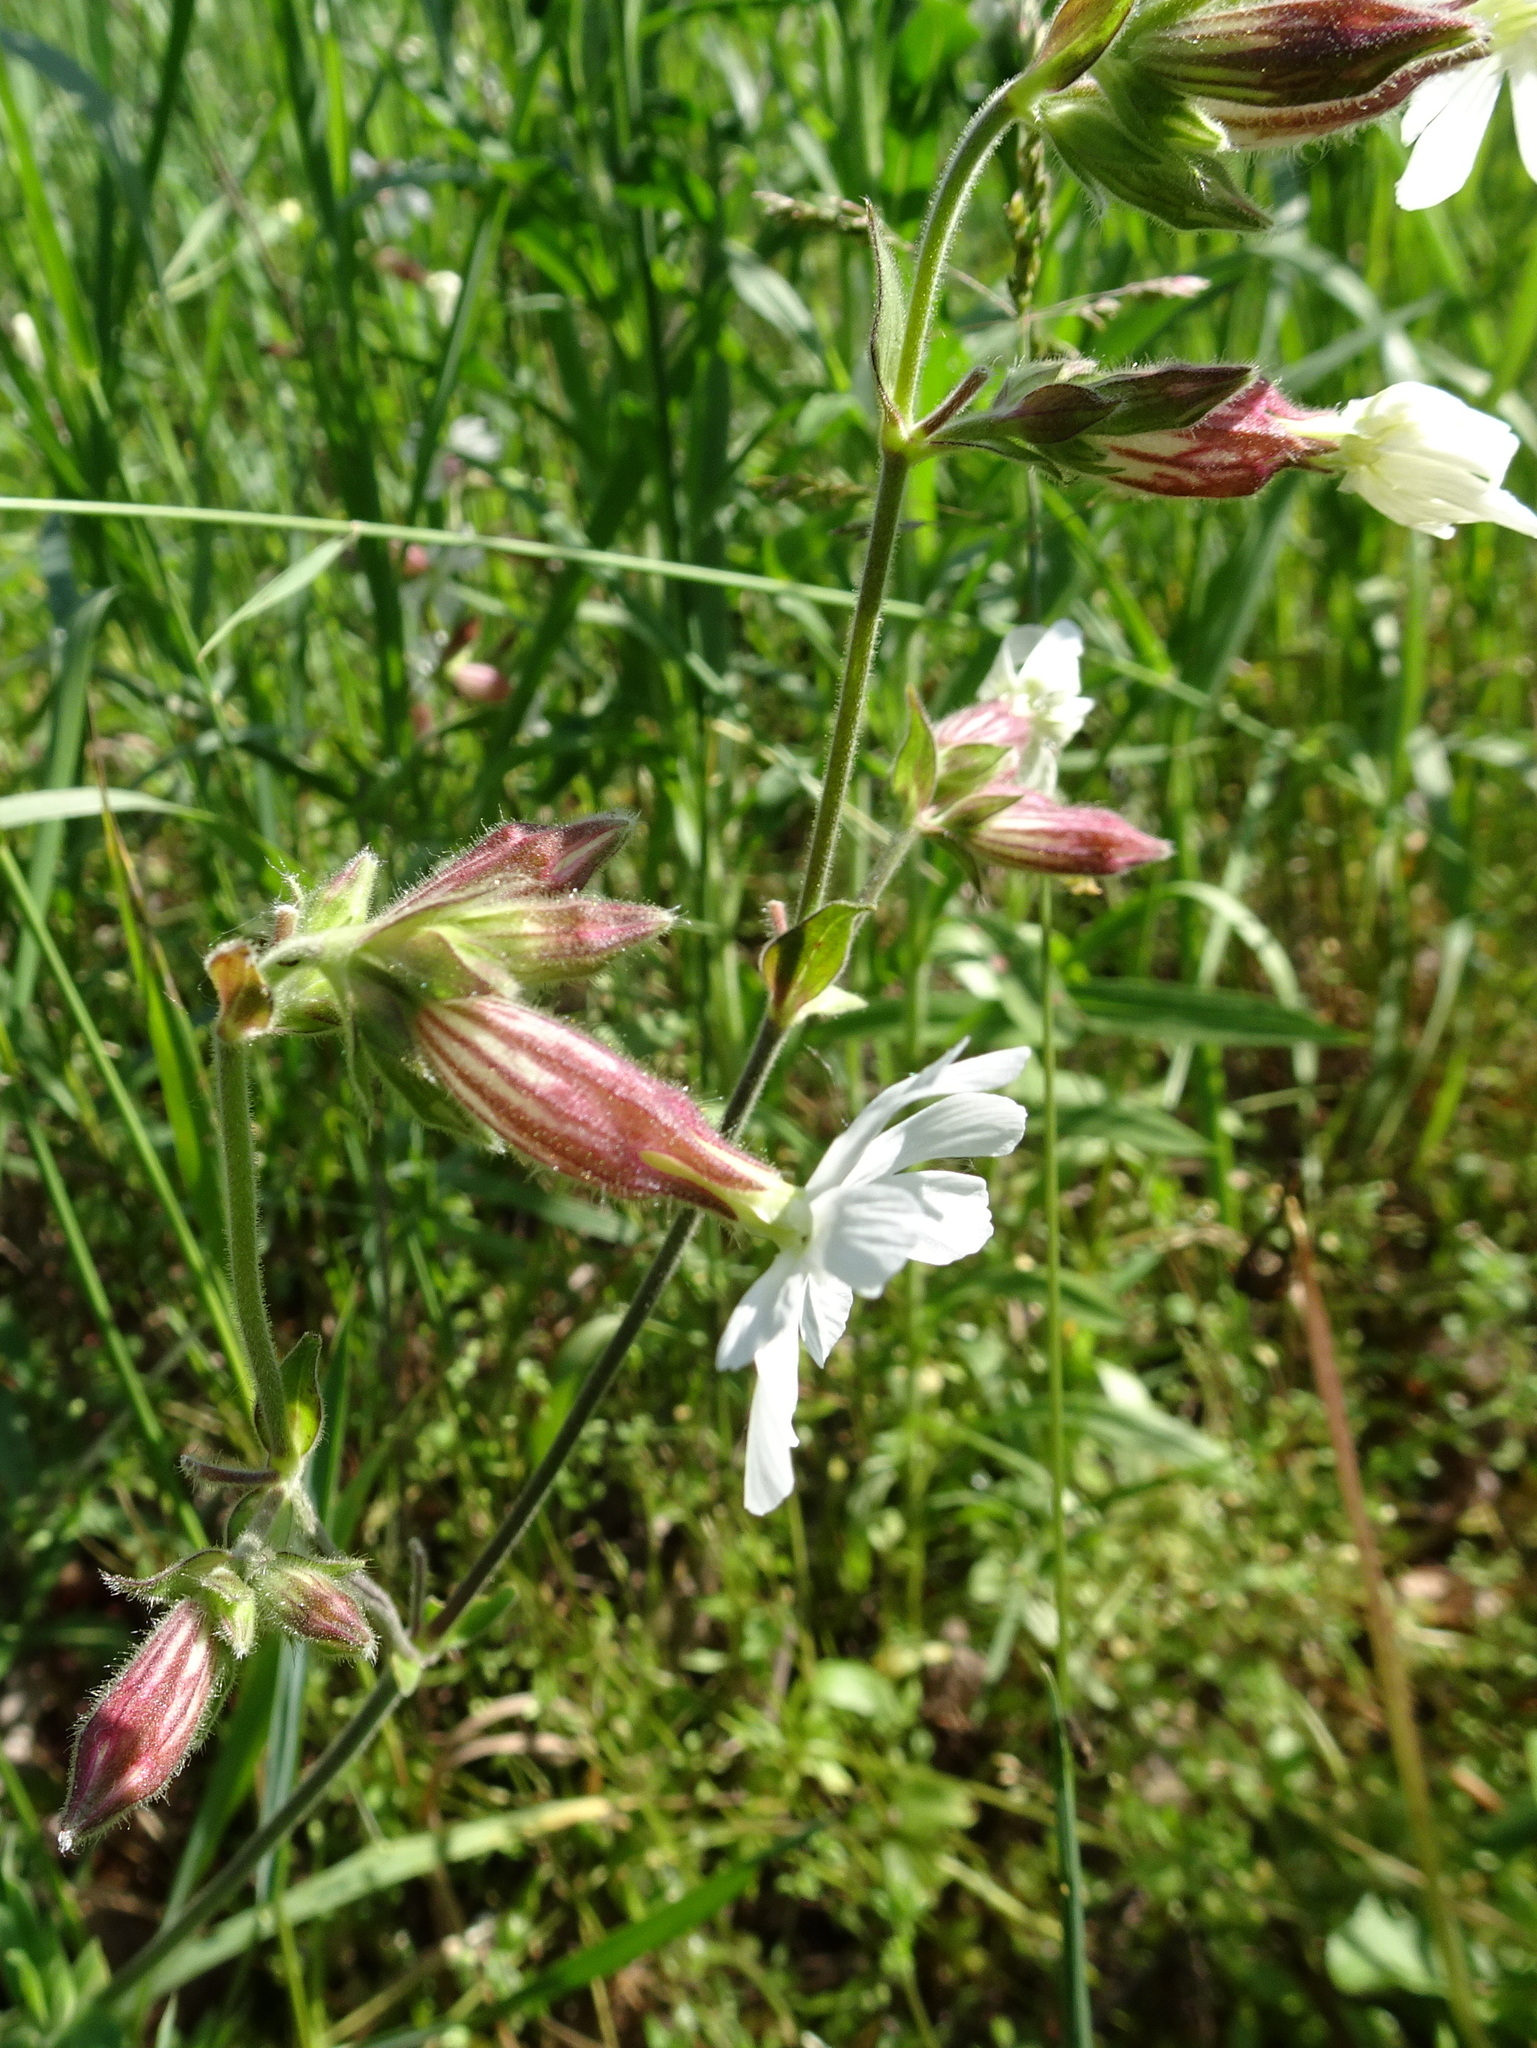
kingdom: Plantae
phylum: Tracheophyta
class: Magnoliopsida
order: Caryophyllales
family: Caryophyllaceae
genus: Silene
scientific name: Silene latifolia
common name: White campion
